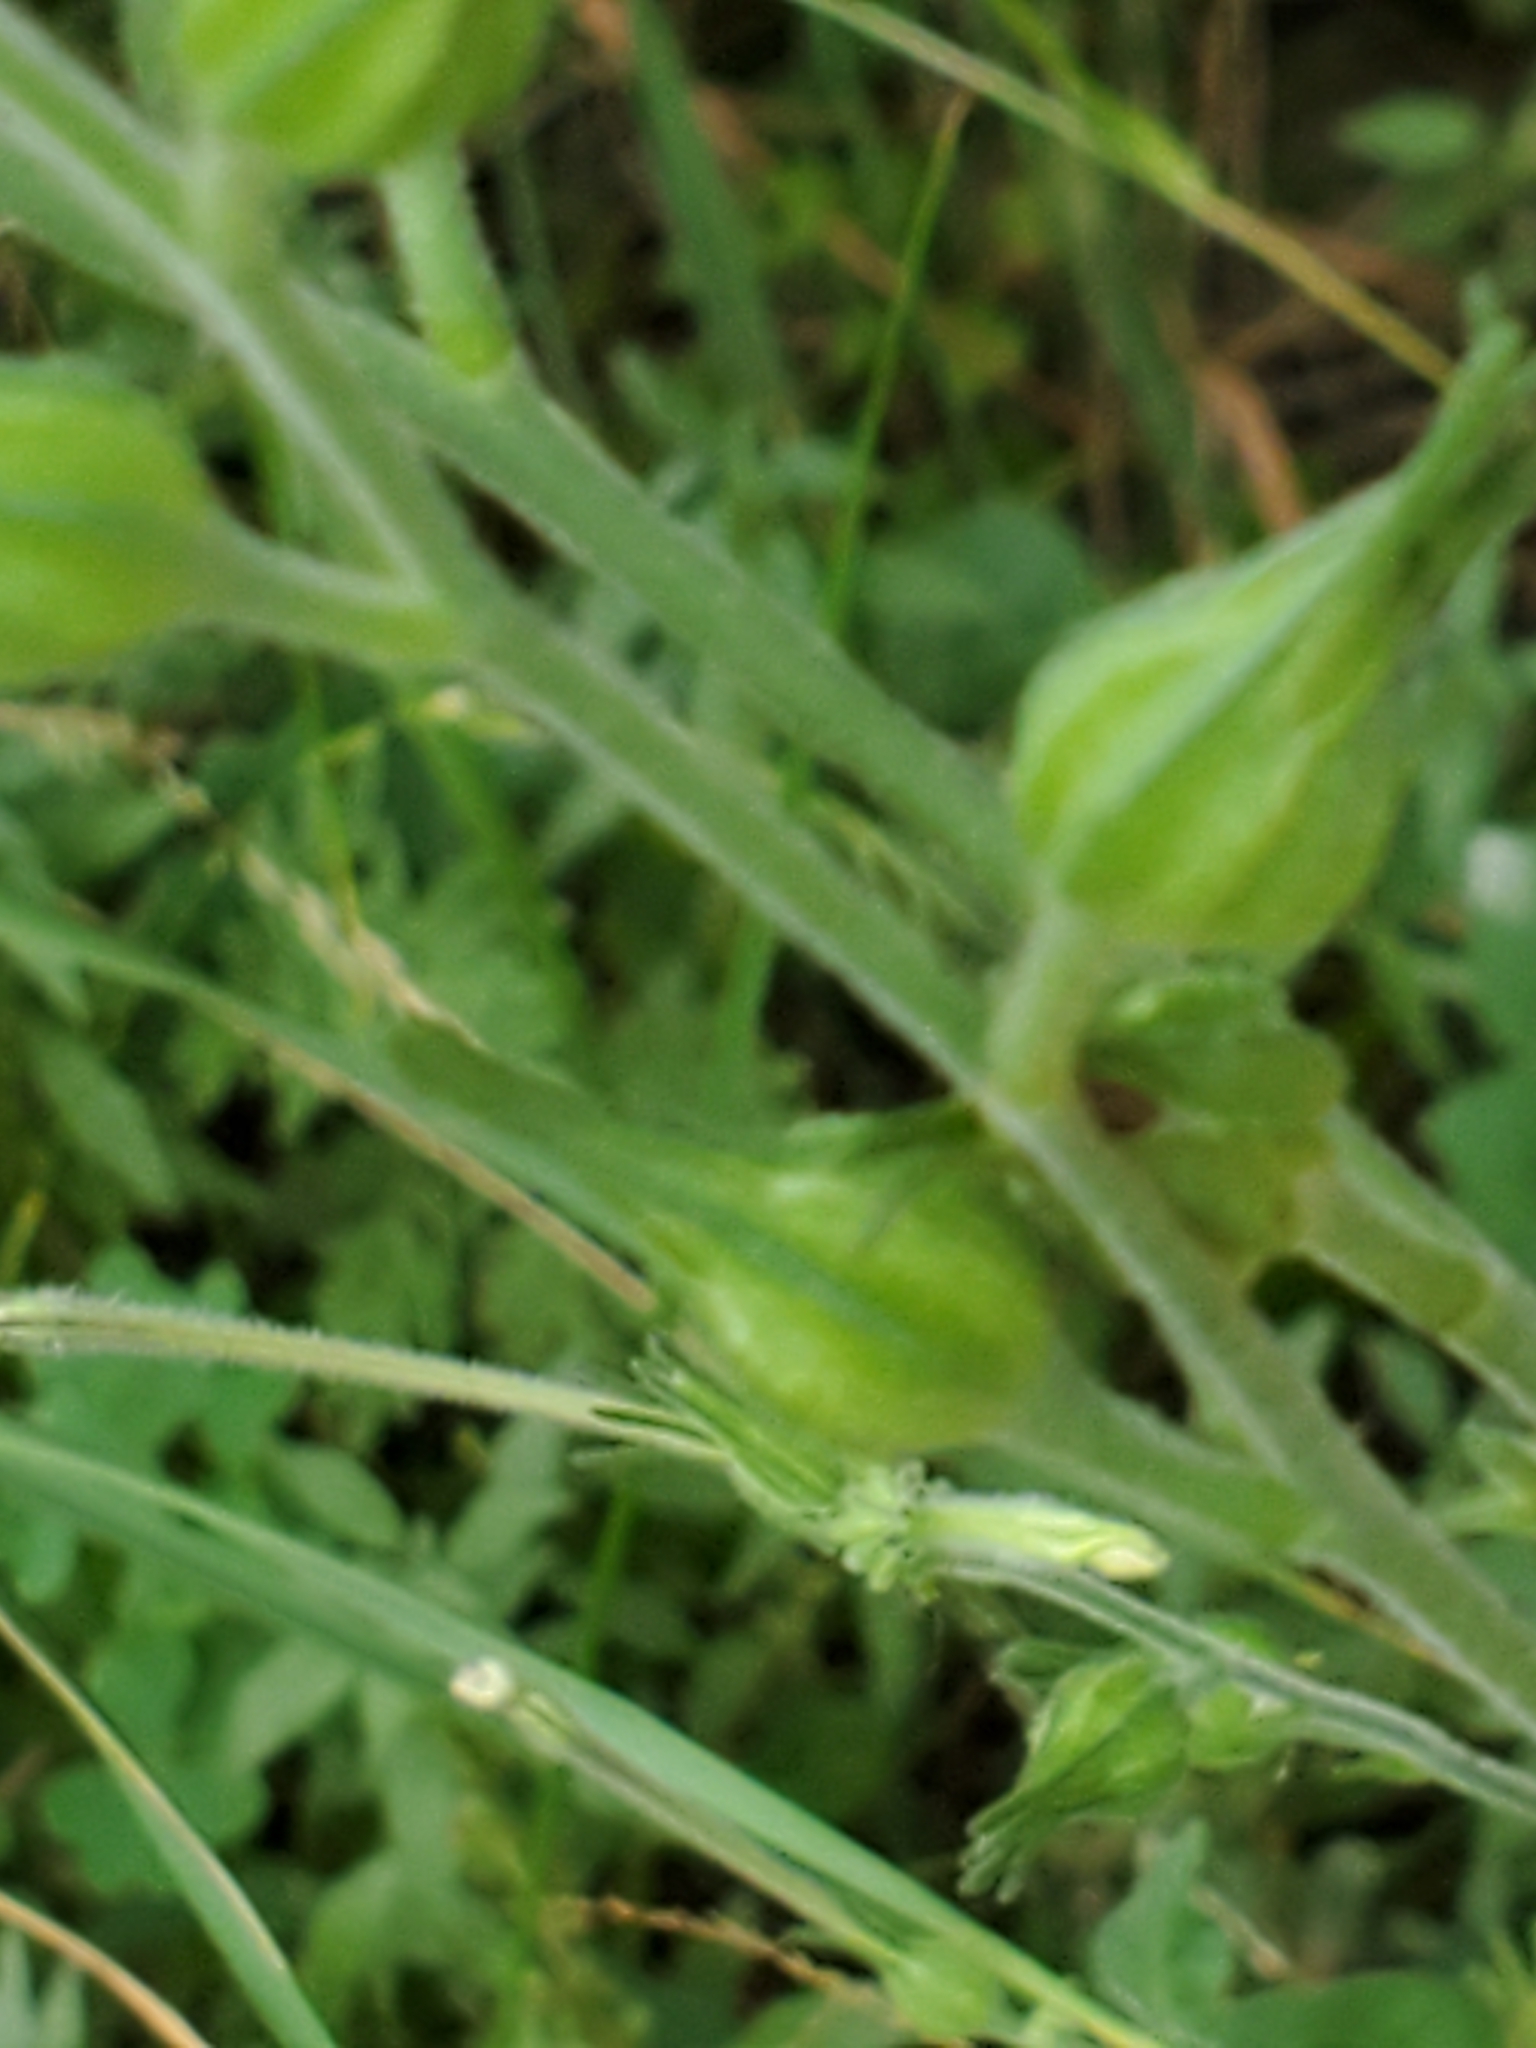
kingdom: Plantae
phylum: Tracheophyta
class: Magnoliopsida
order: Solanales
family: Solanaceae
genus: Nicotiana
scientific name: Nicotiana repanda
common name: Fiddle-leaf tobacco
